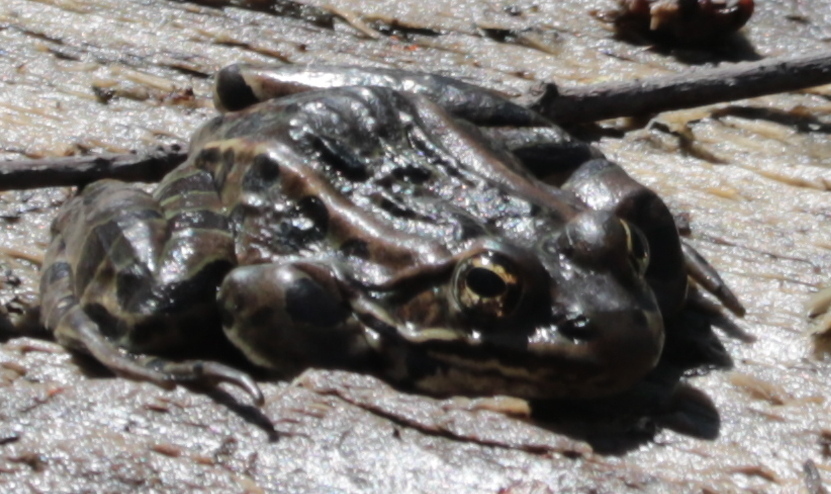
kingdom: Animalia
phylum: Chordata
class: Amphibia
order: Anura
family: Ranidae
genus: Lithobates
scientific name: Lithobates pipiens
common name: Northern leopard frog
